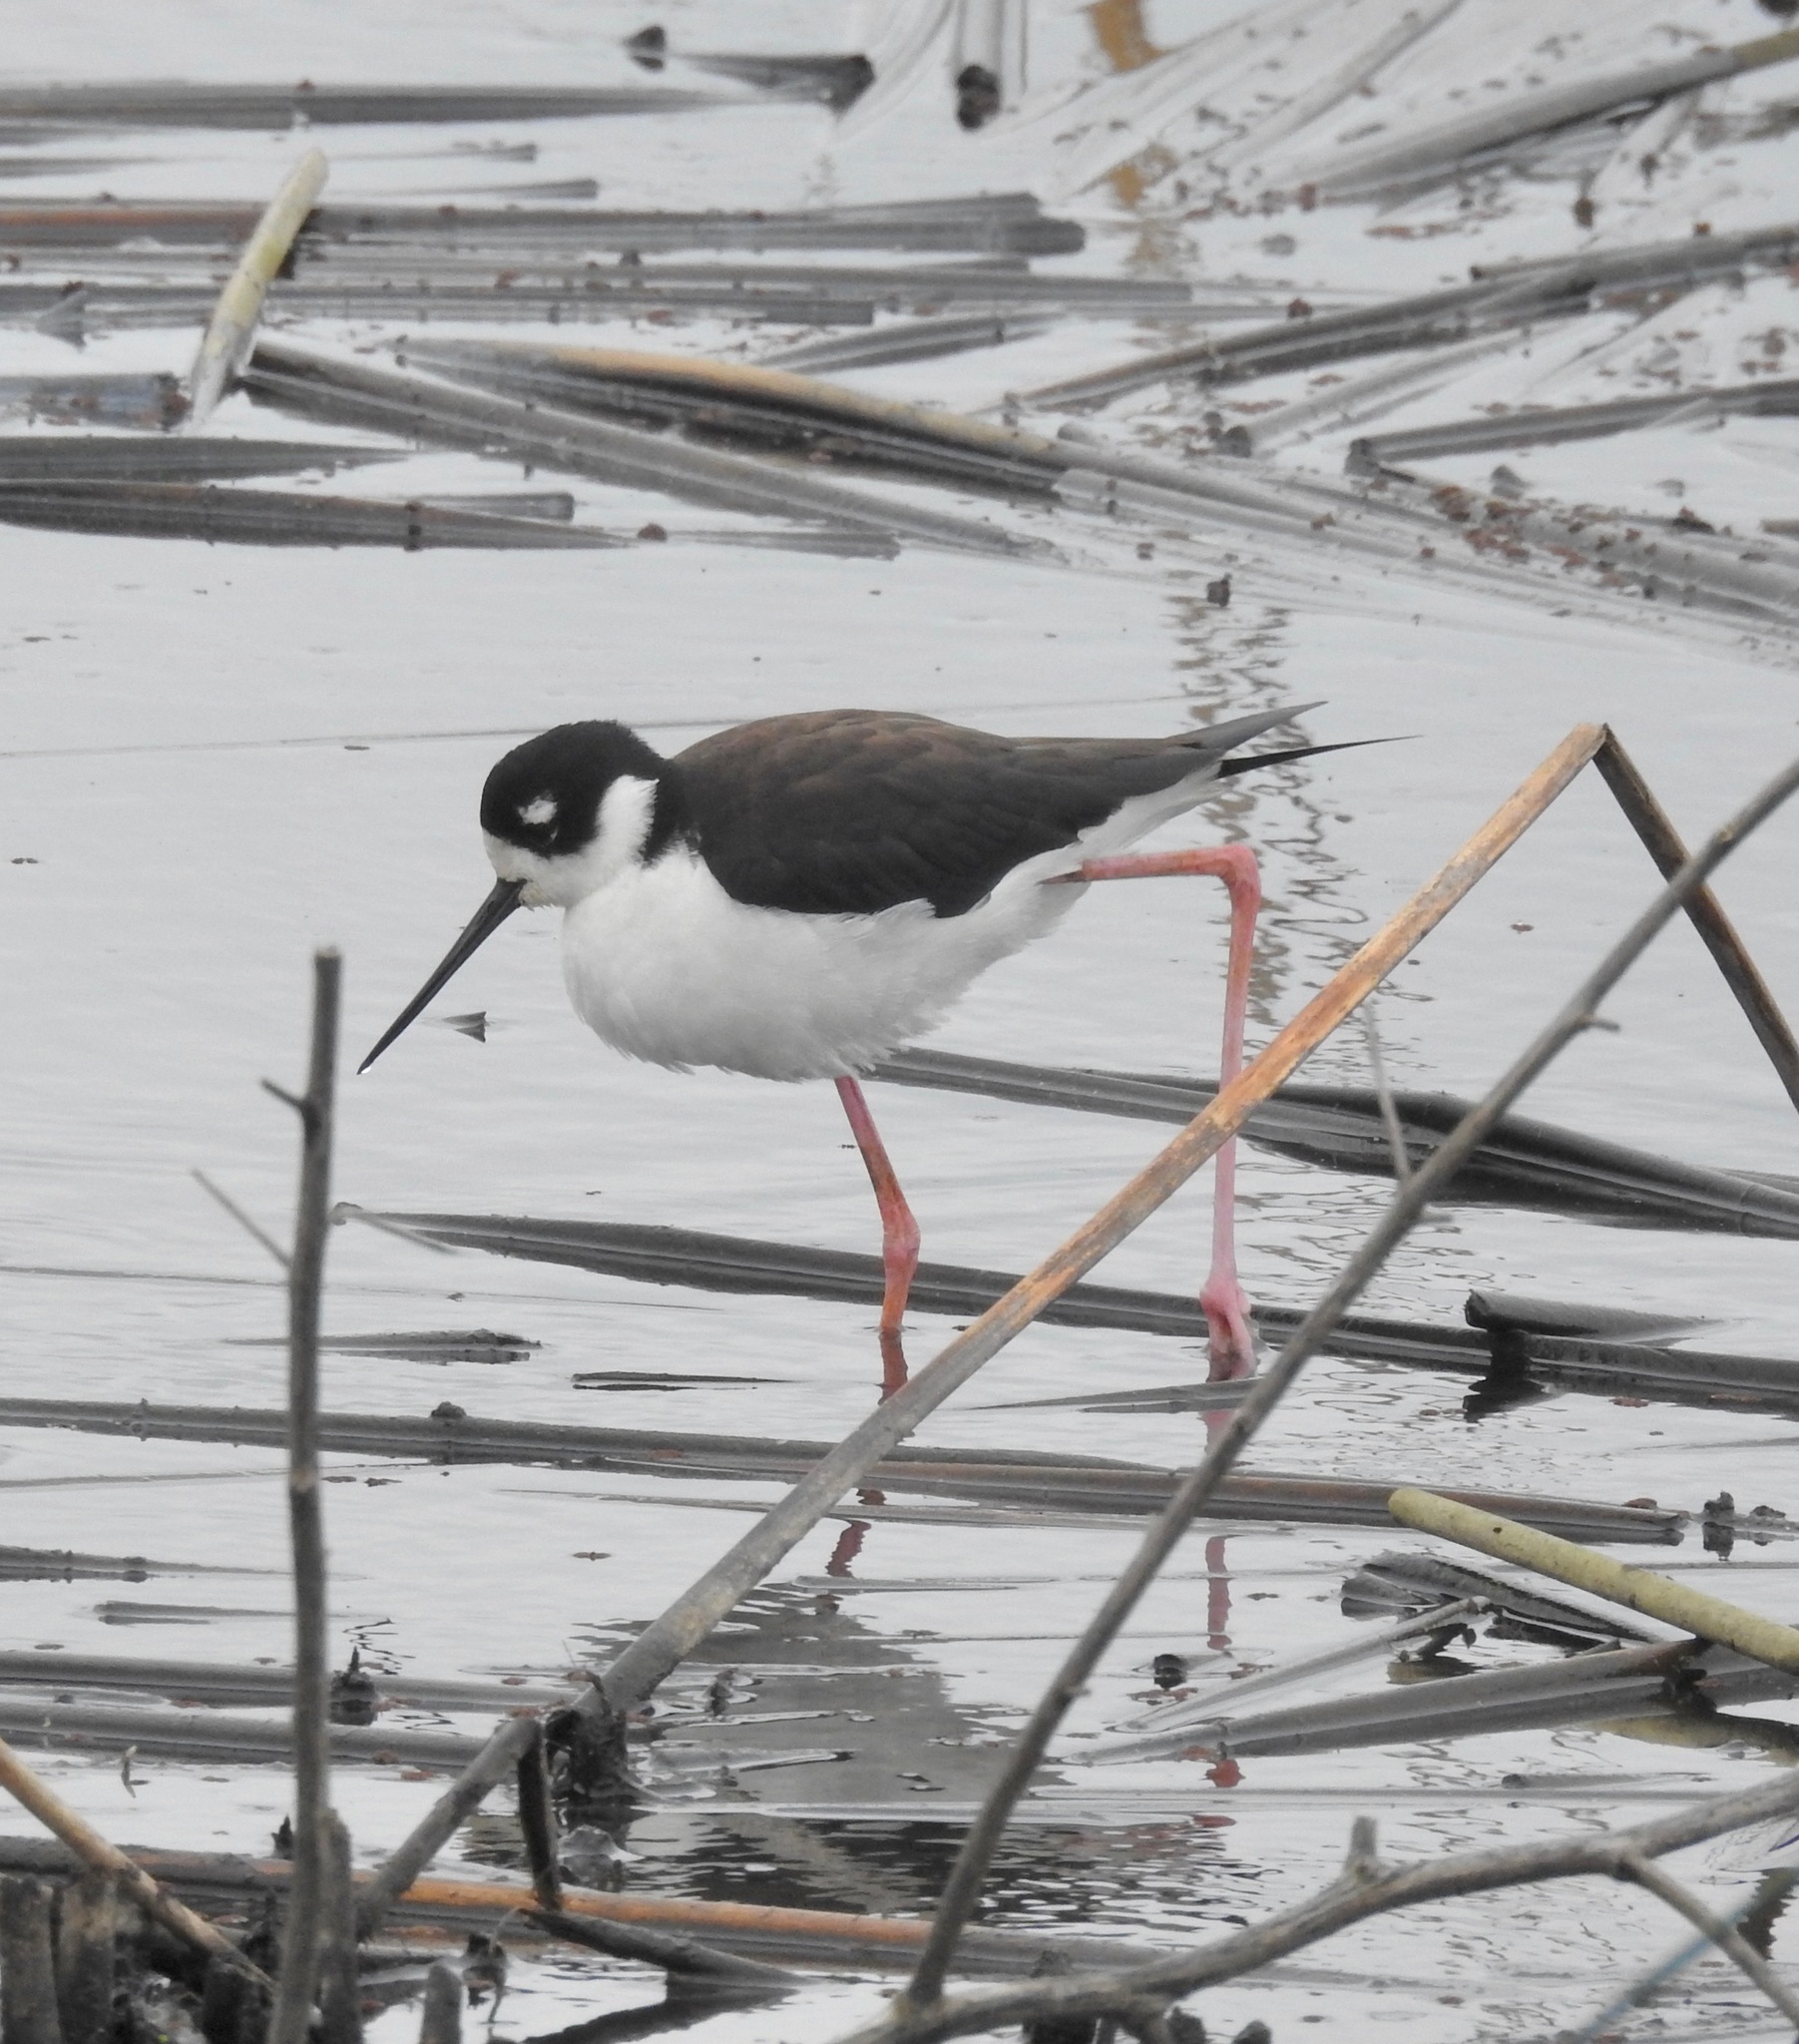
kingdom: Animalia
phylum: Chordata
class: Aves
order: Charadriiformes
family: Recurvirostridae
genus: Himantopus
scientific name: Himantopus mexicanus
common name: Black-necked stilt
